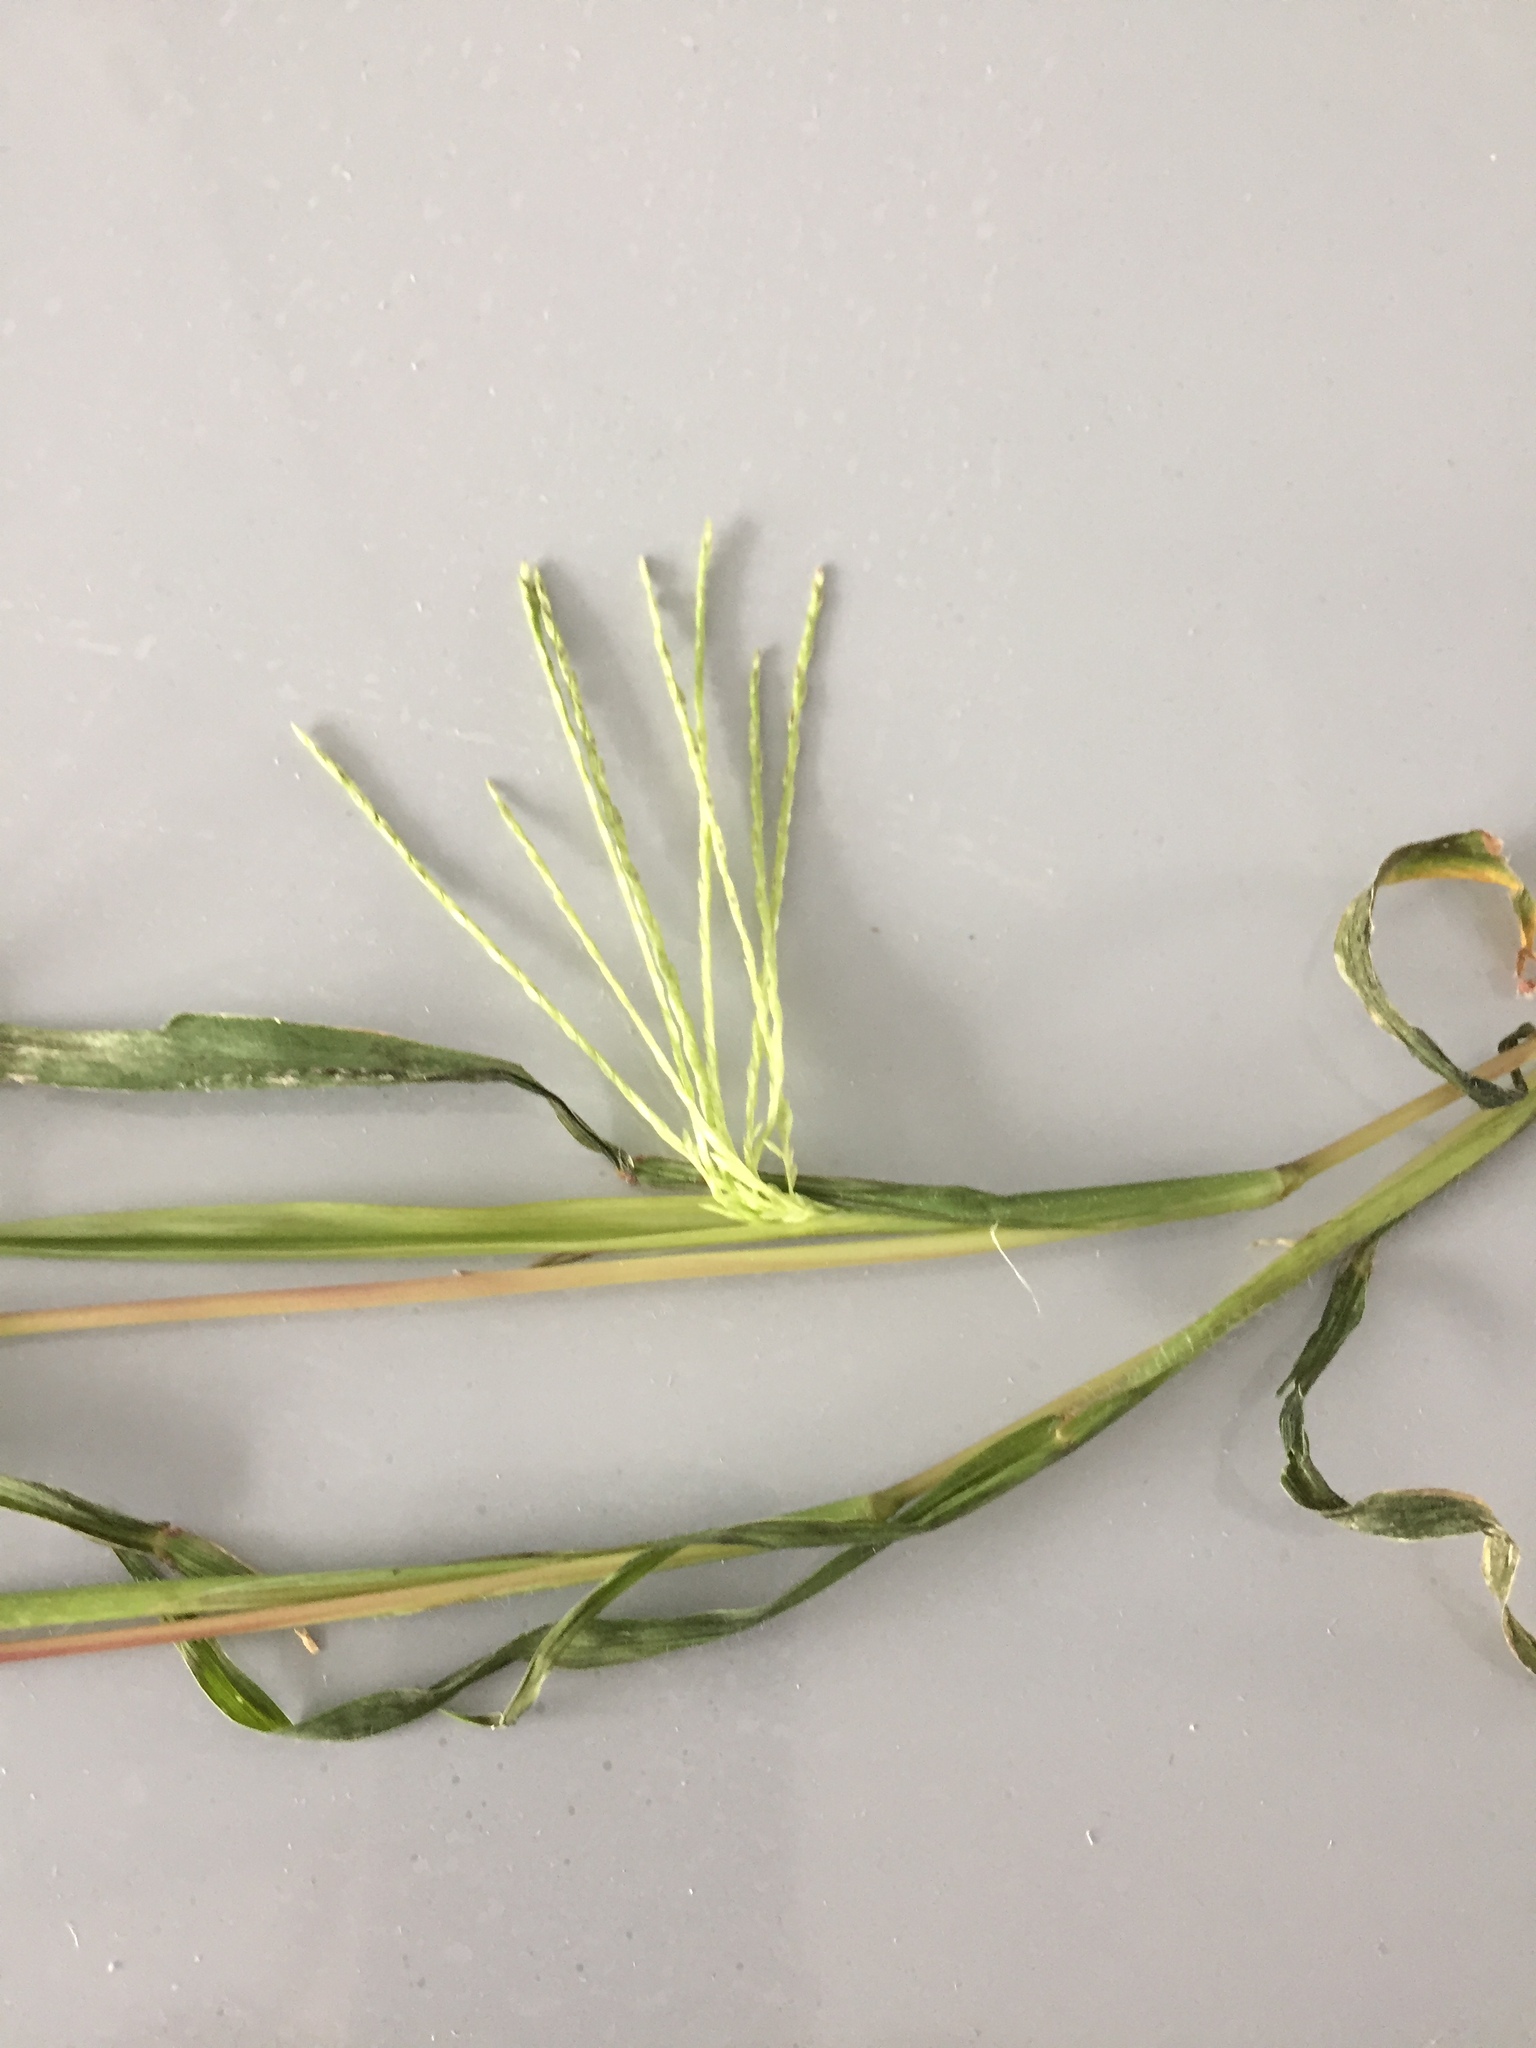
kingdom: Plantae
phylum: Tracheophyta
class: Liliopsida
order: Poales
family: Poaceae
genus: Digitaria
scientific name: Digitaria sanguinalis
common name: Hairy crabgrass
